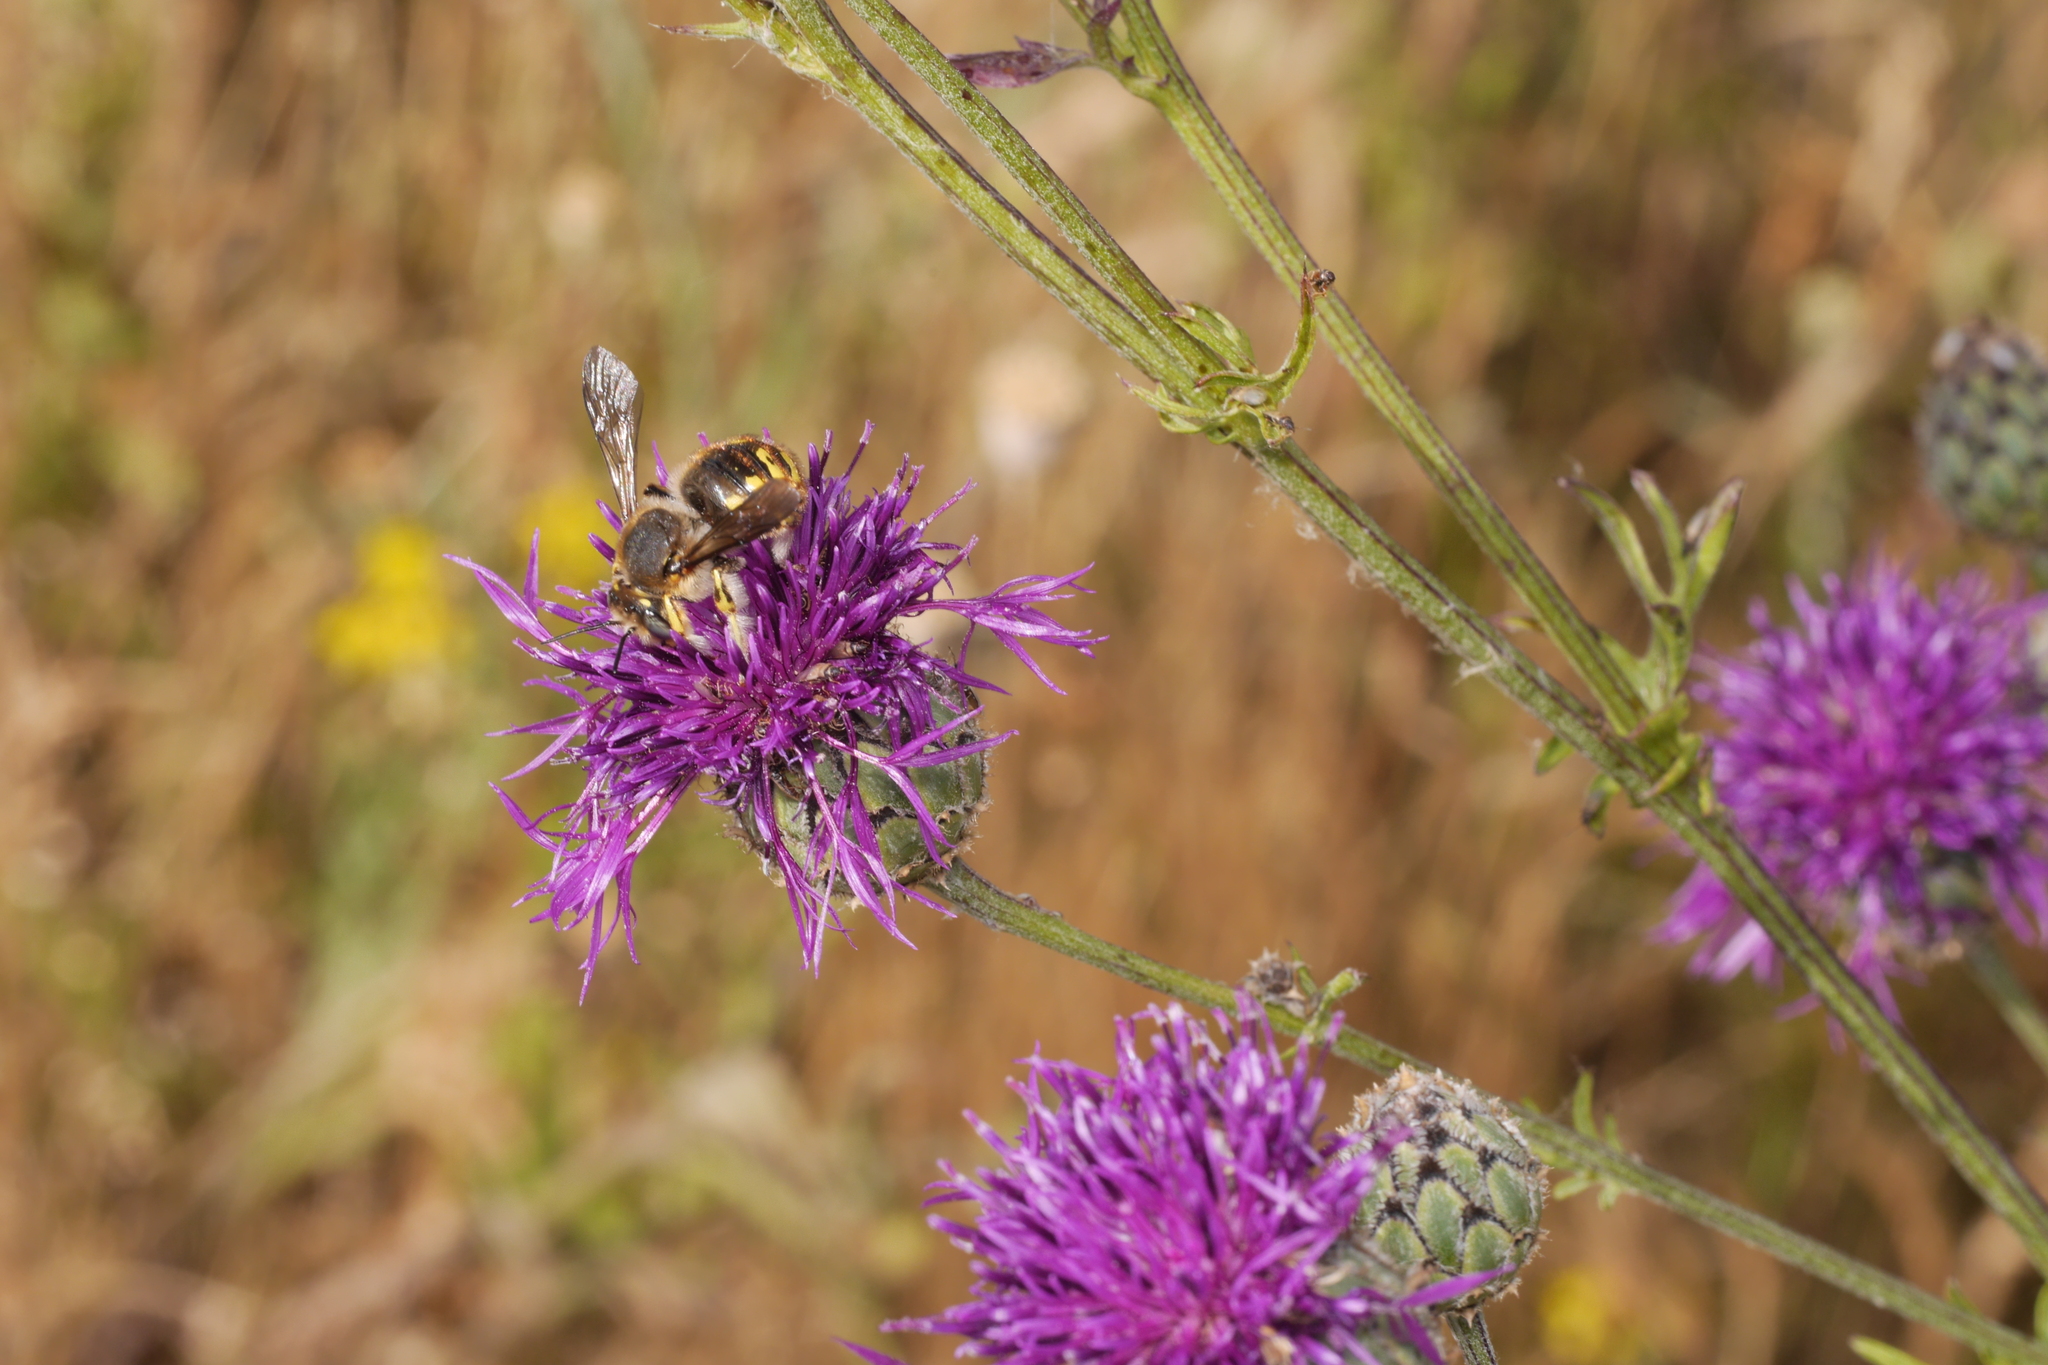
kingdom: Animalia
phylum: Arthropoda
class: Insecta
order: Hymenoptera
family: Megachilidae
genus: Anthidium
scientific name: Anthidium manicatum
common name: Wool carder bee
